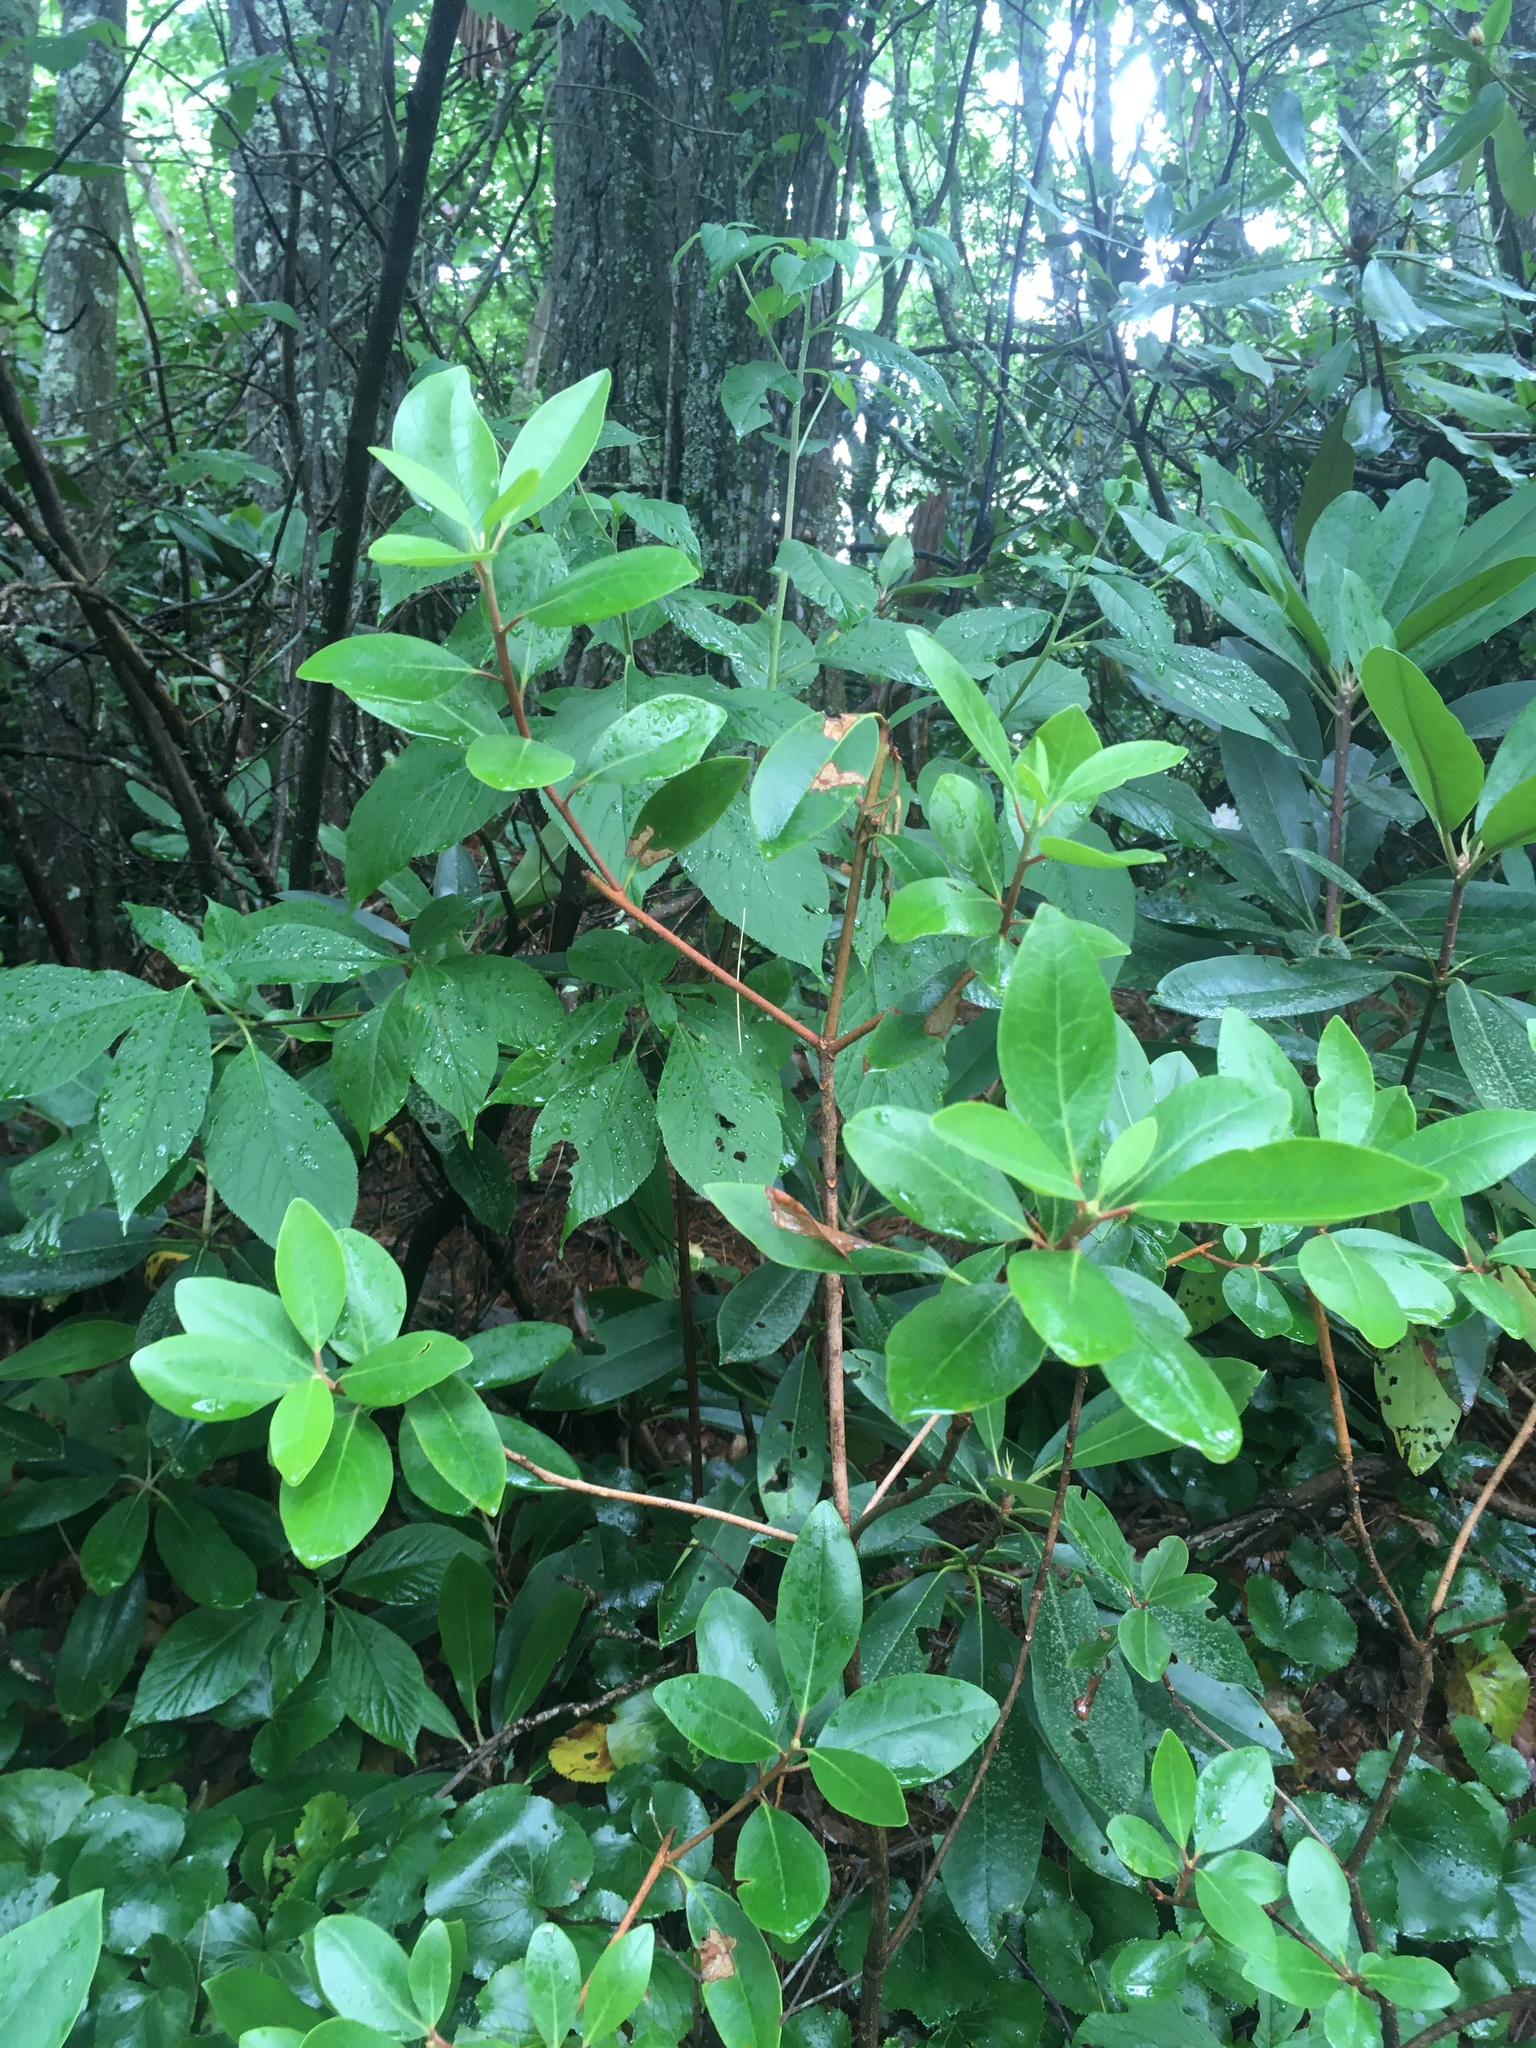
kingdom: Plantae
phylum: Tracheophyta
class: Magnoliopsida
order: Ericales
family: Ericaceae
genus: Kalmia
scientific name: Kalmia latifolia
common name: Mountain-laurel
